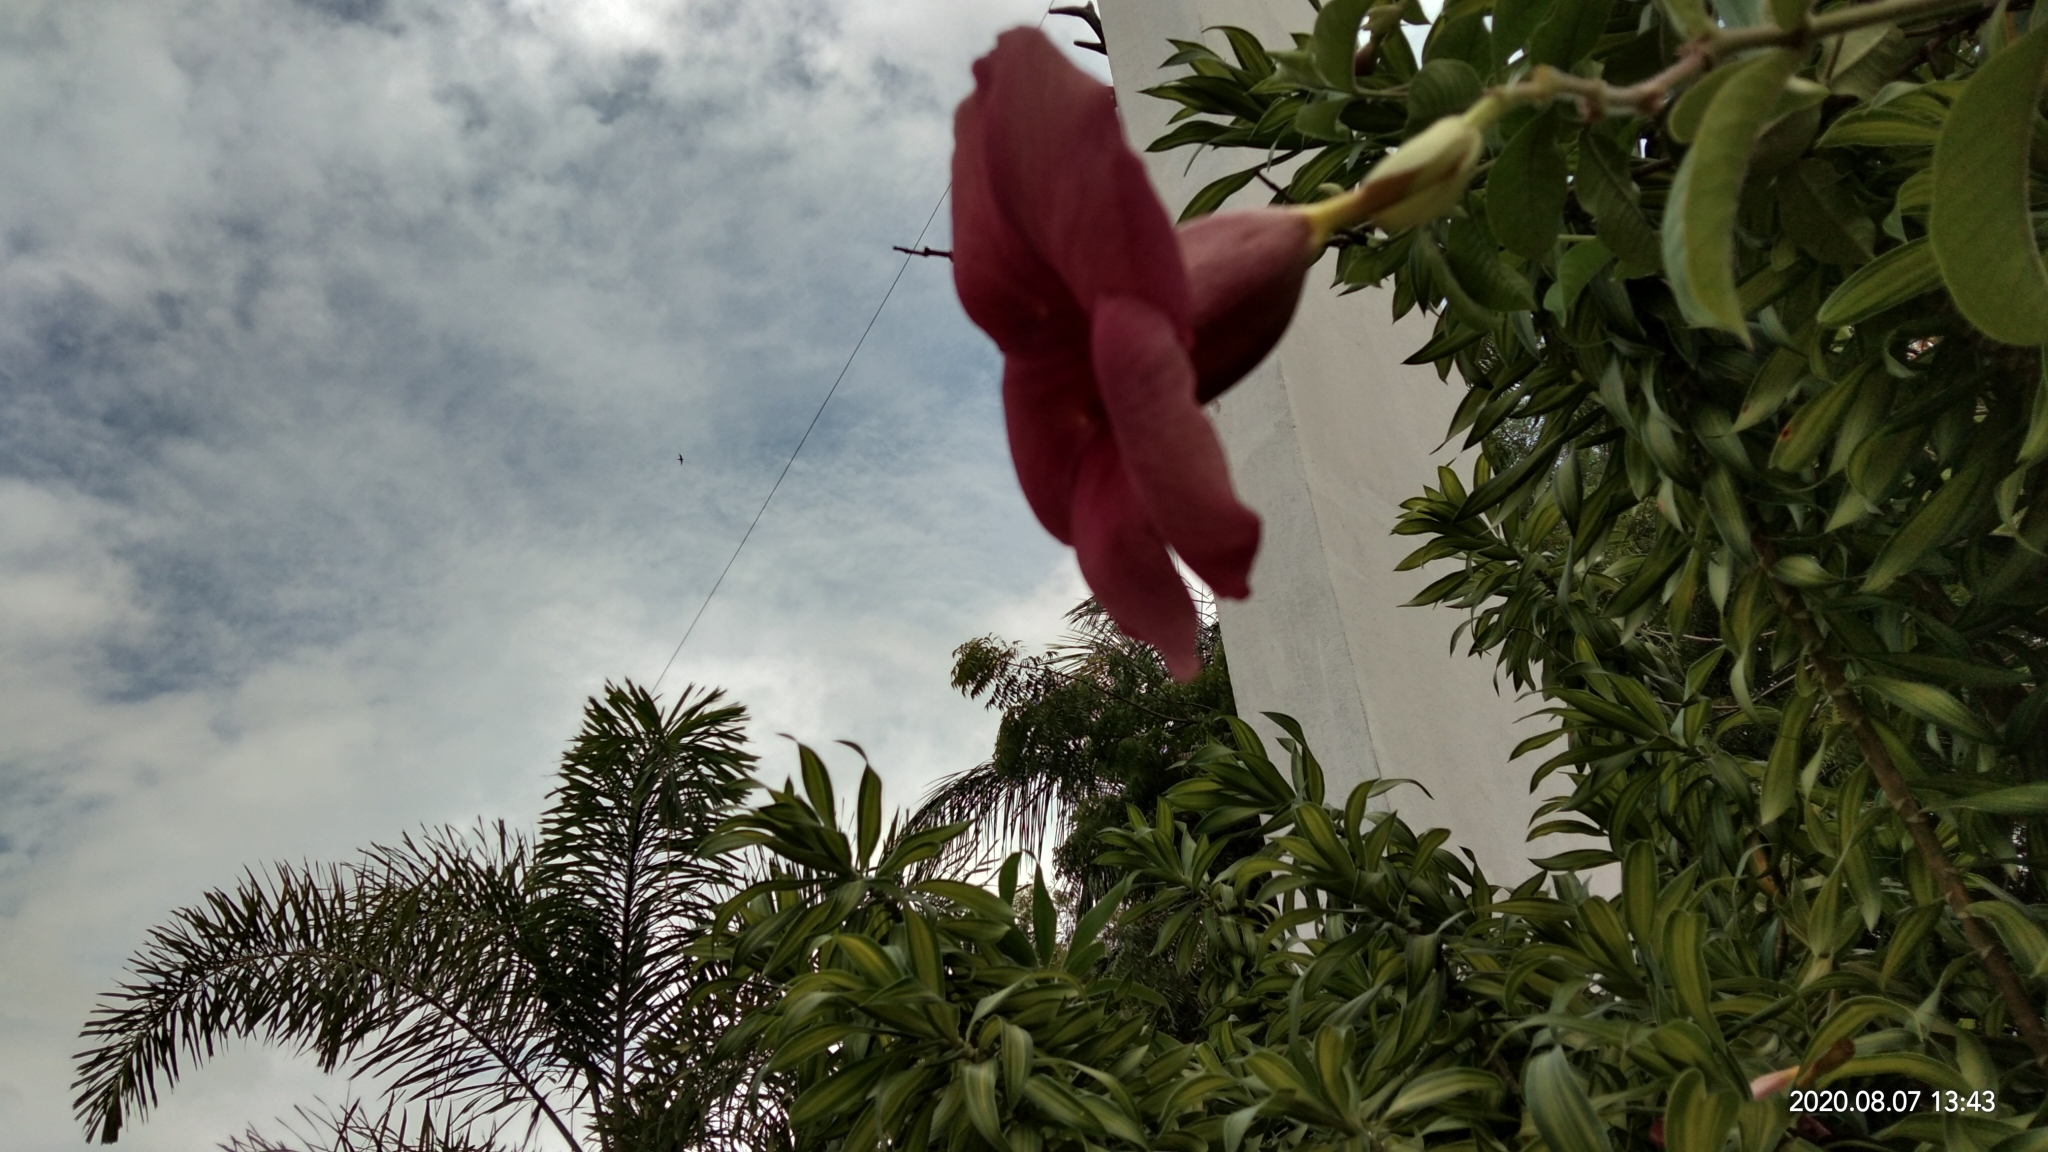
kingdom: Plantae
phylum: Tracheophyta
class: Magnoliopsida
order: Gentianales
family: Apocynaceae
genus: Allamanda
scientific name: Allamanda blanchetii
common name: Purple allamanda
